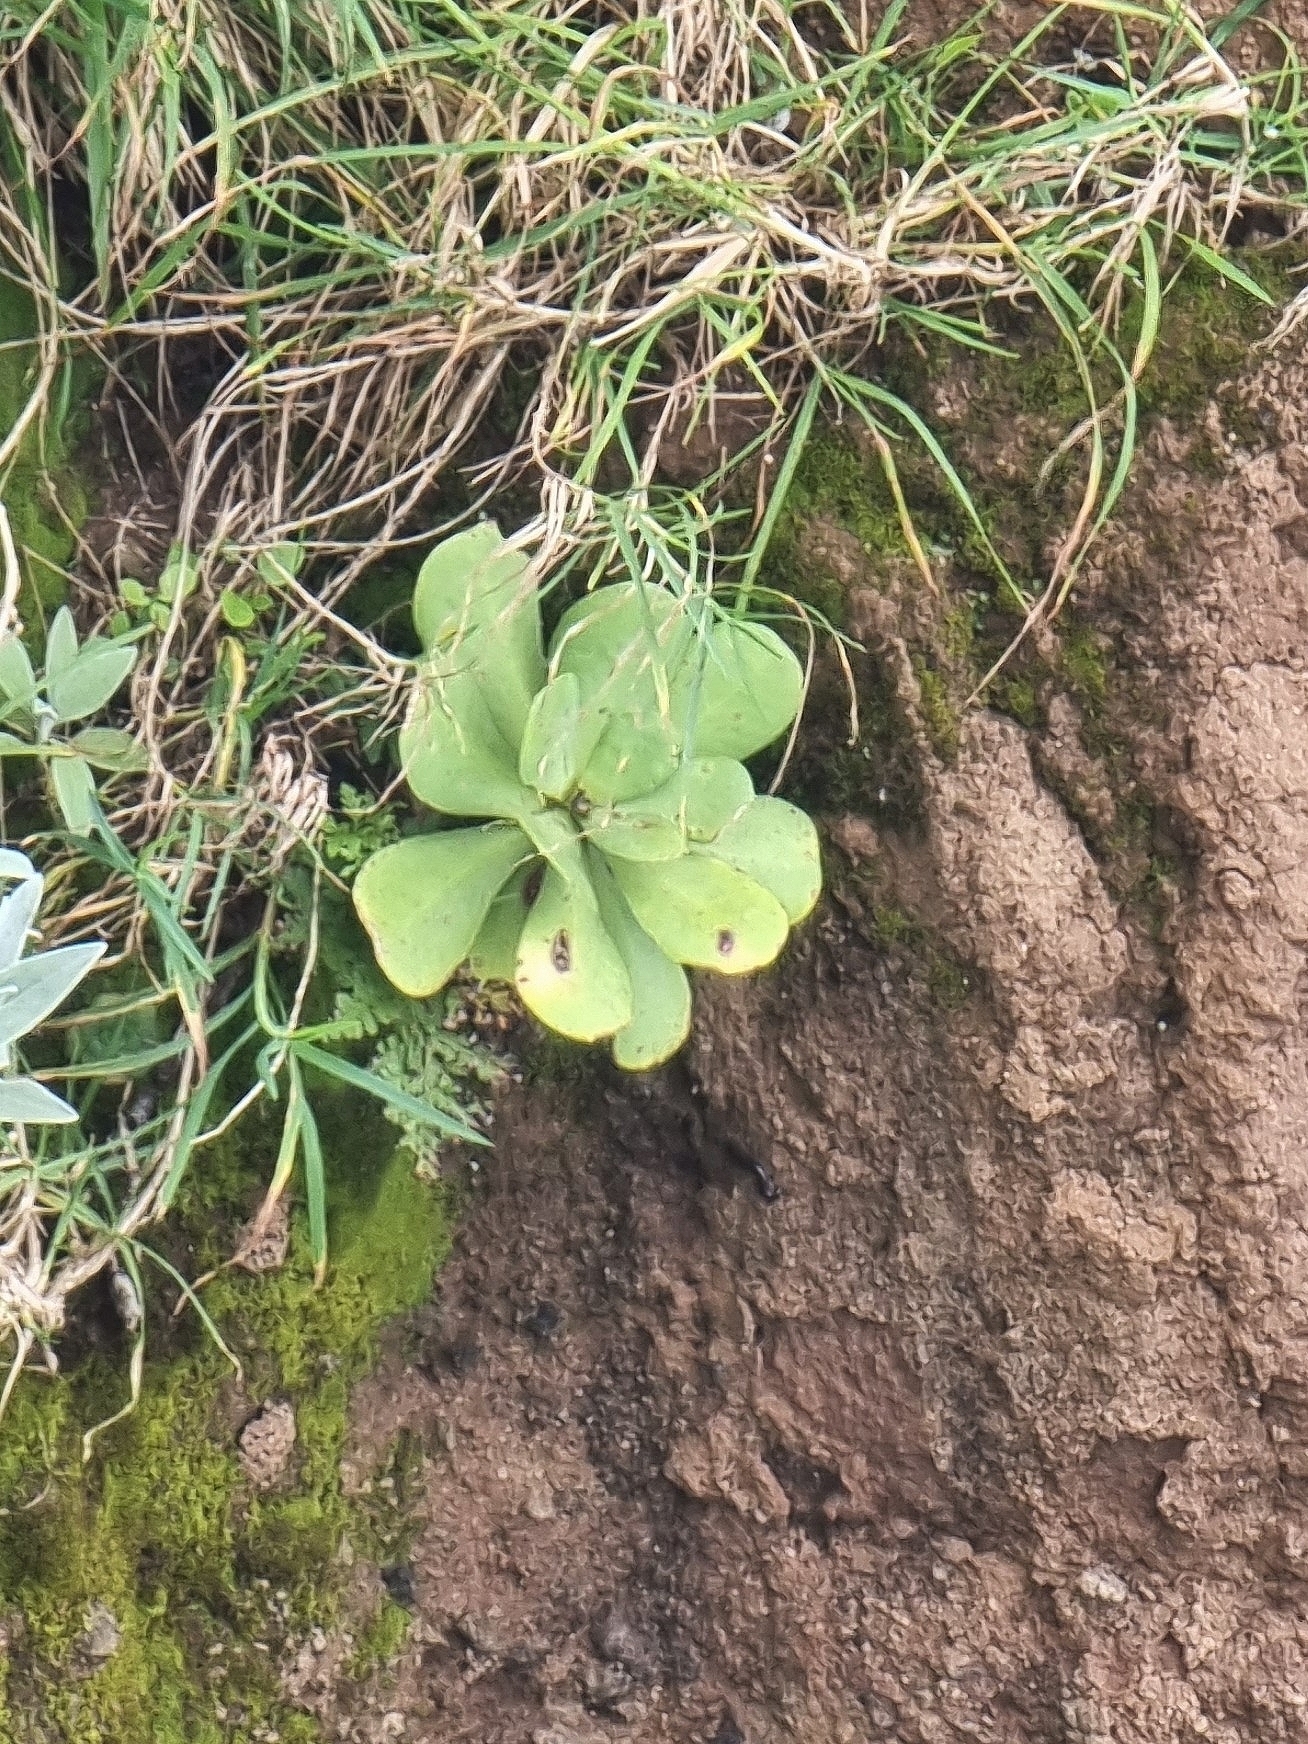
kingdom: Plantae
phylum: Tracheophyta
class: Magnoliopsida
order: Saxifragales
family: Crassulaceae
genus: Aeonium
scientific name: Aeonium glutinosum
